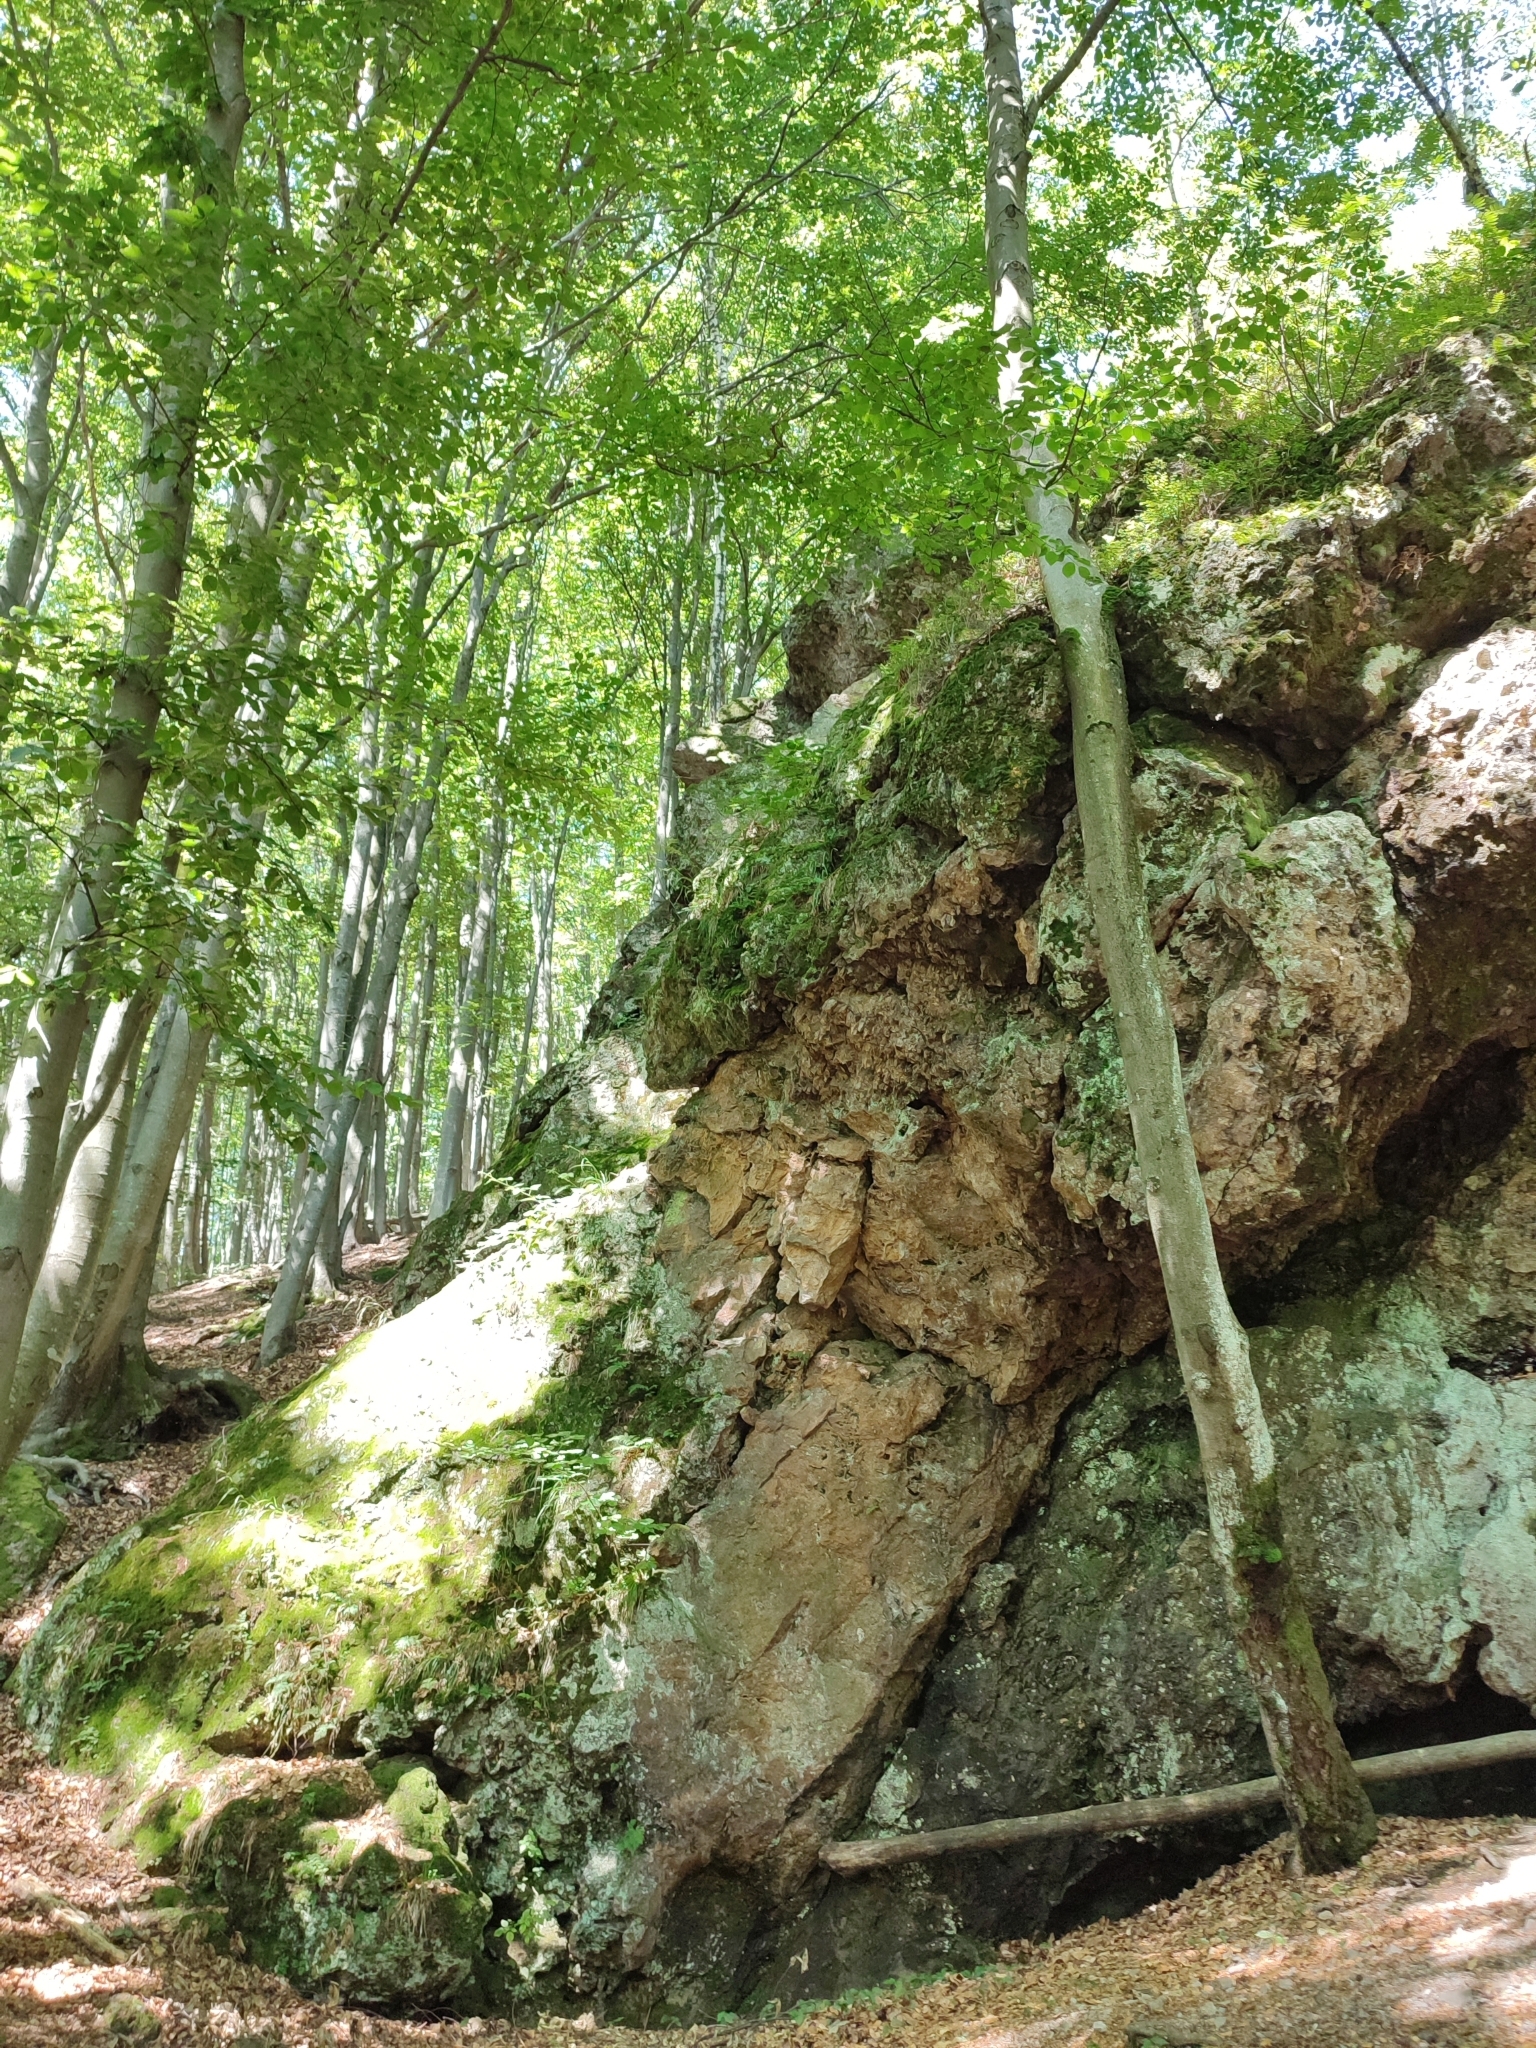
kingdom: Plantae
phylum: Tracheophyta
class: Magnoliopsida
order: Fagales
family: Fagaceae
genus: Fagus
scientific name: Fagus sylvatica
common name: Beech
